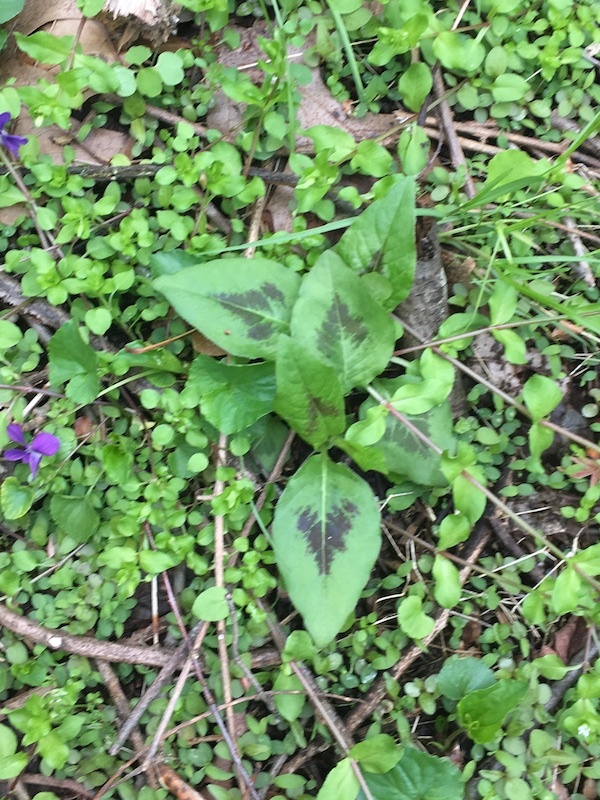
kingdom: Plantae
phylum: Tracheophyta
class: Magnoliopsida
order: Caryophyllales
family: Polygonaceae
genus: Persicaria
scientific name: Persicaria virginiana
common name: Jumpseed
